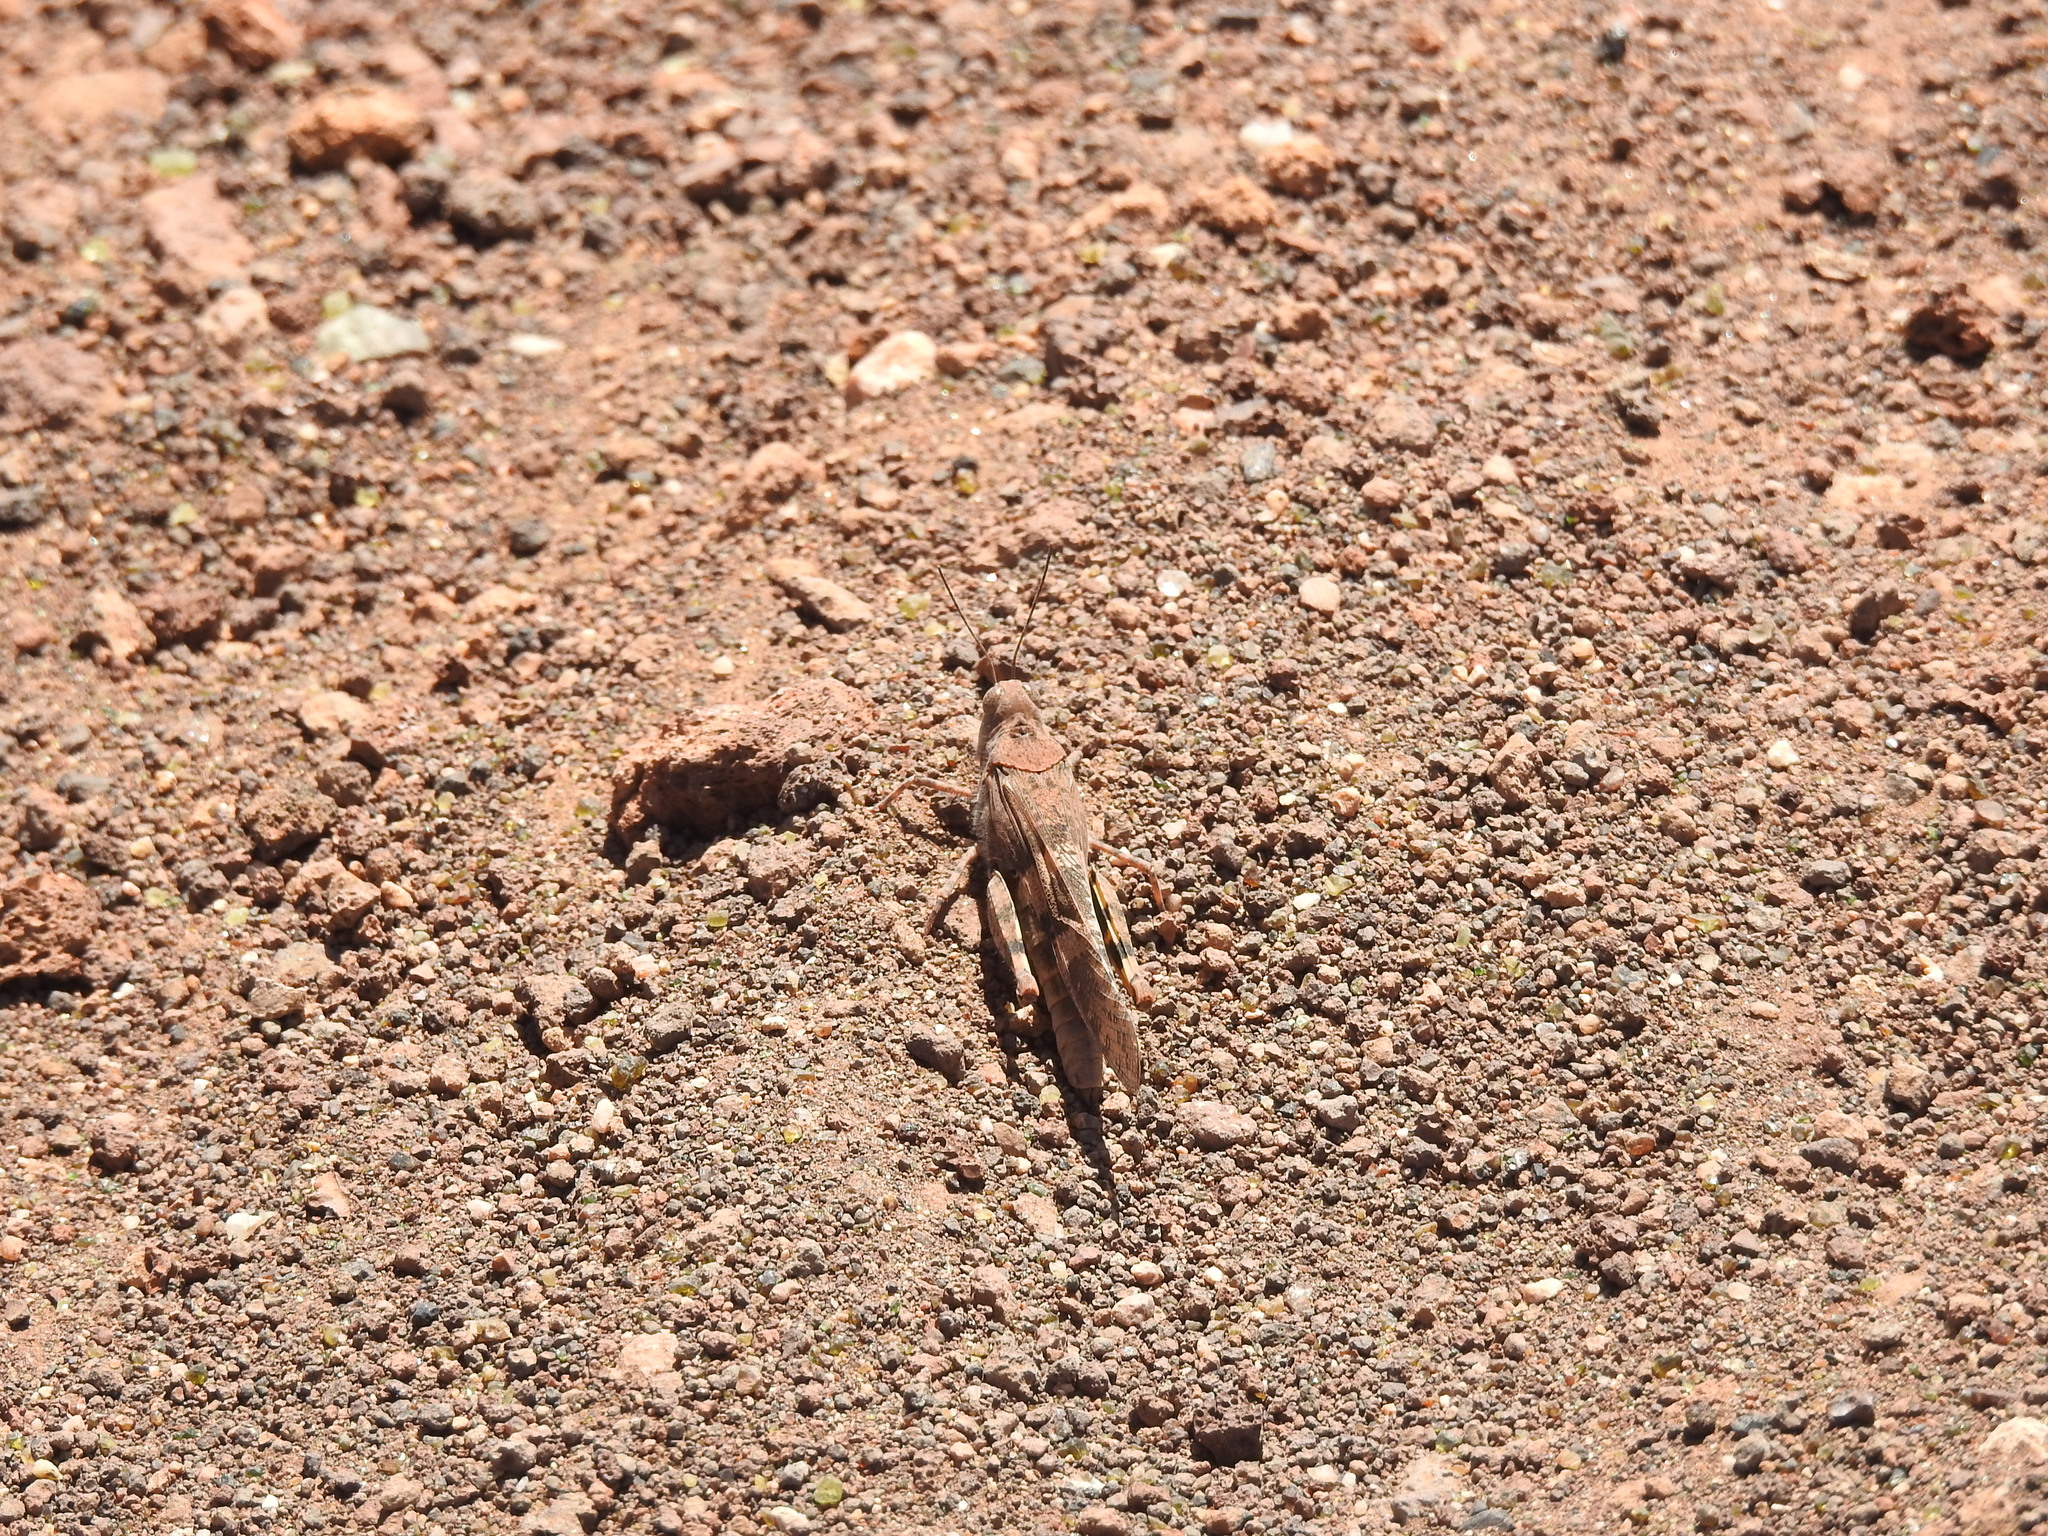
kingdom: Animalia
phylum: Arthropoda
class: Insecta
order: Orthoptera
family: Acrididae
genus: Trimerotropis
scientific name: Trimerotropis pallidipennis
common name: Pallid-winged grasshopper
